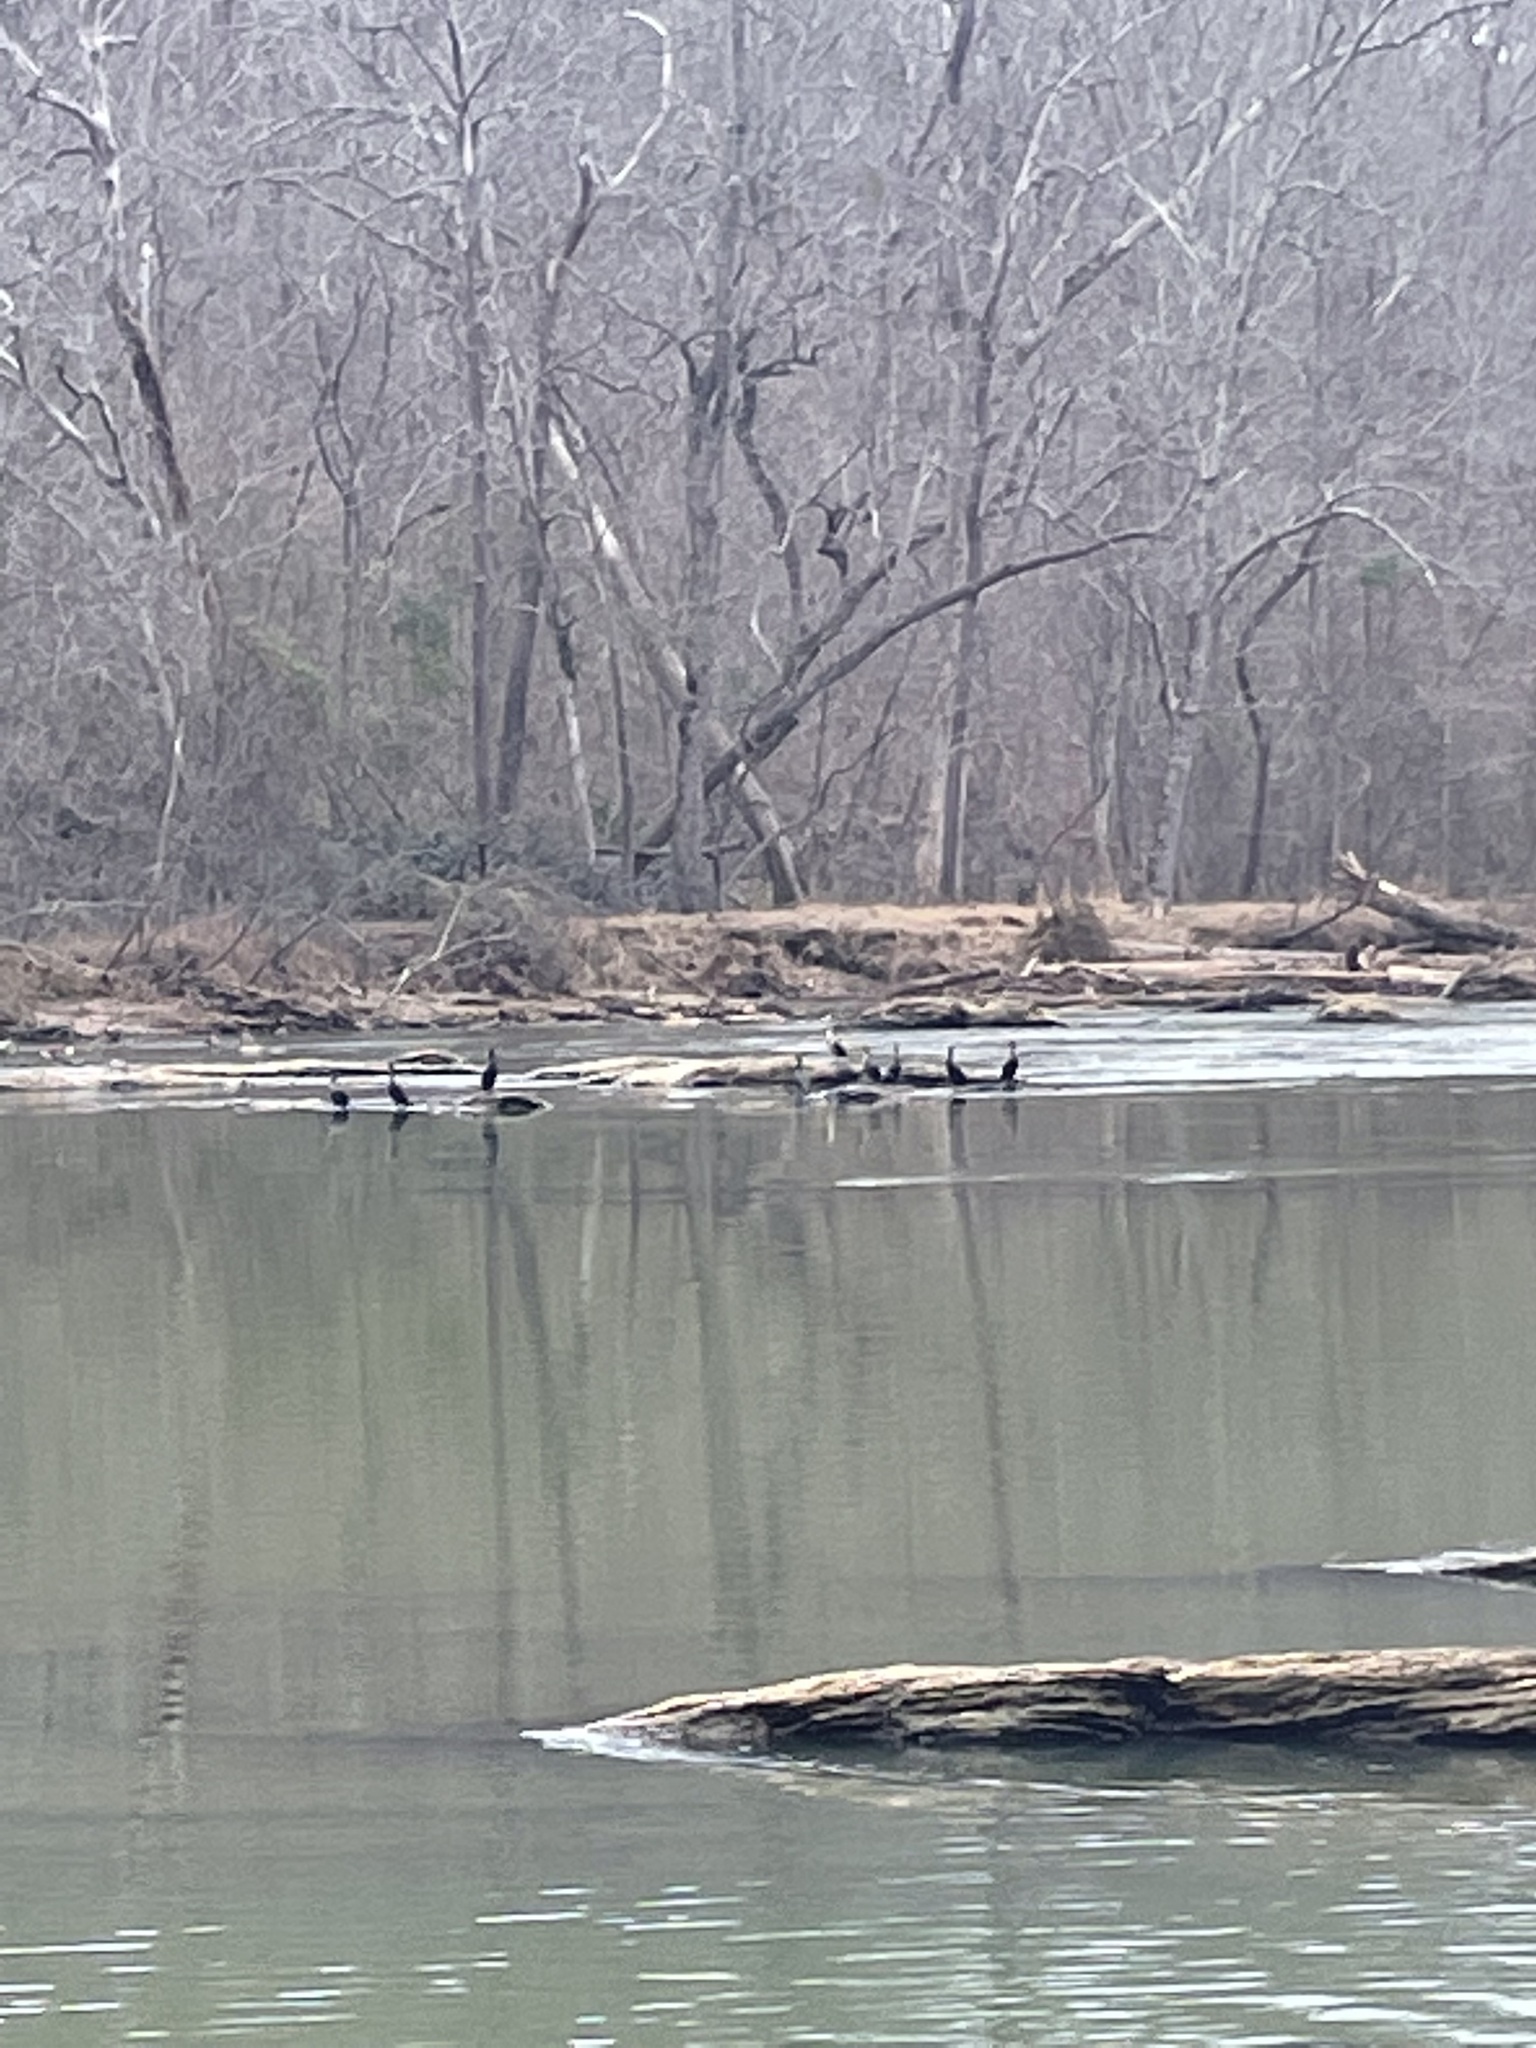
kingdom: Animalia
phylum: Chordata
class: Aves
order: Suliformes
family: Phalacrocoracidae
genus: Phalacrocorax
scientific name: Phalacrocorax auritus
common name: Double-crested cormorant
